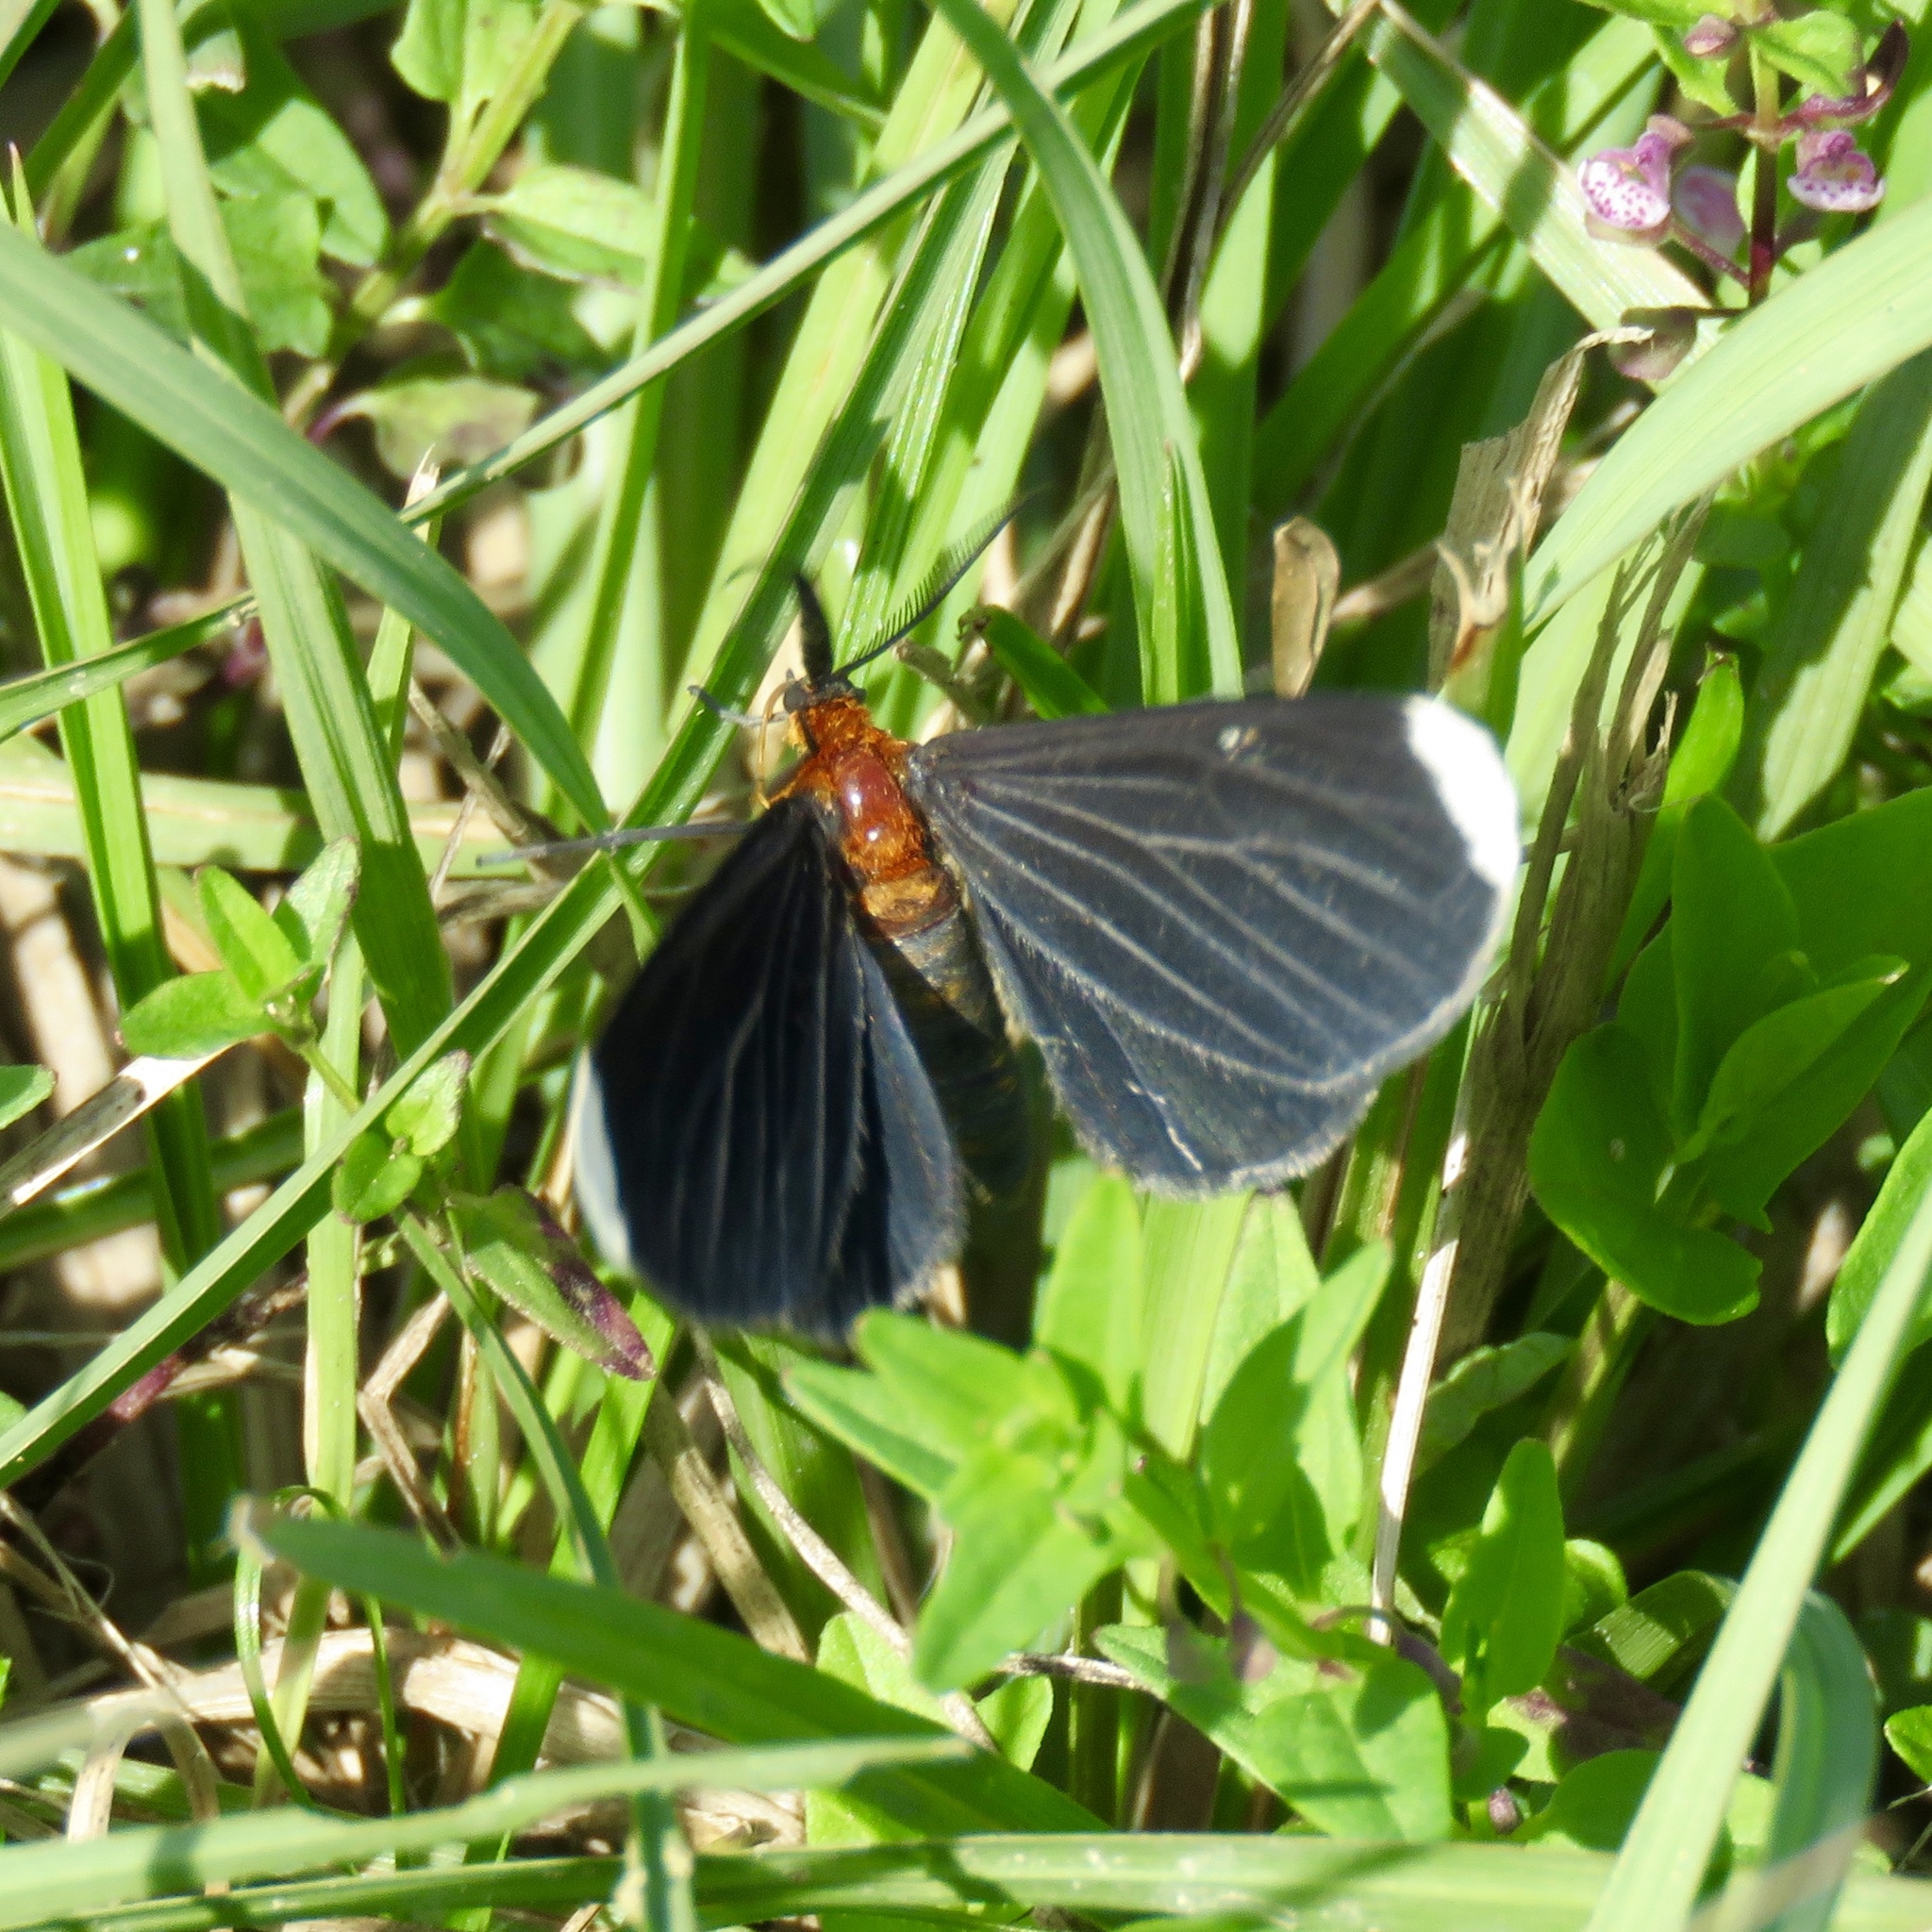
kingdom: Animalia
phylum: Arthropoda
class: Insecta
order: Lepidoptera
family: Geometridae
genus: Melanchroia
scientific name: Melanchroia chephise
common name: White-tipped black
